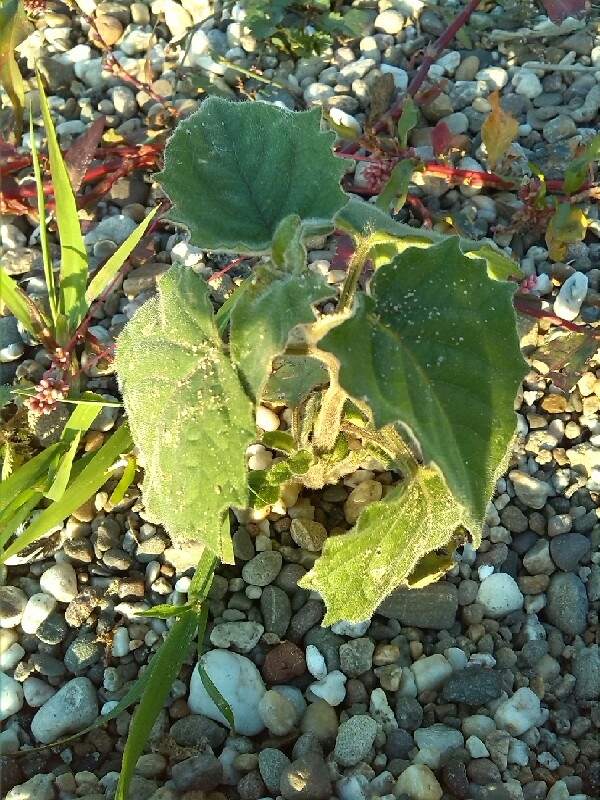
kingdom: Plantae
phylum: Tracheophyta
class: Magnoliopsida
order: Solanales
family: Solanaceae
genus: Physalis
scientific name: Physalis peruviana
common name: Cape-gooseberry
